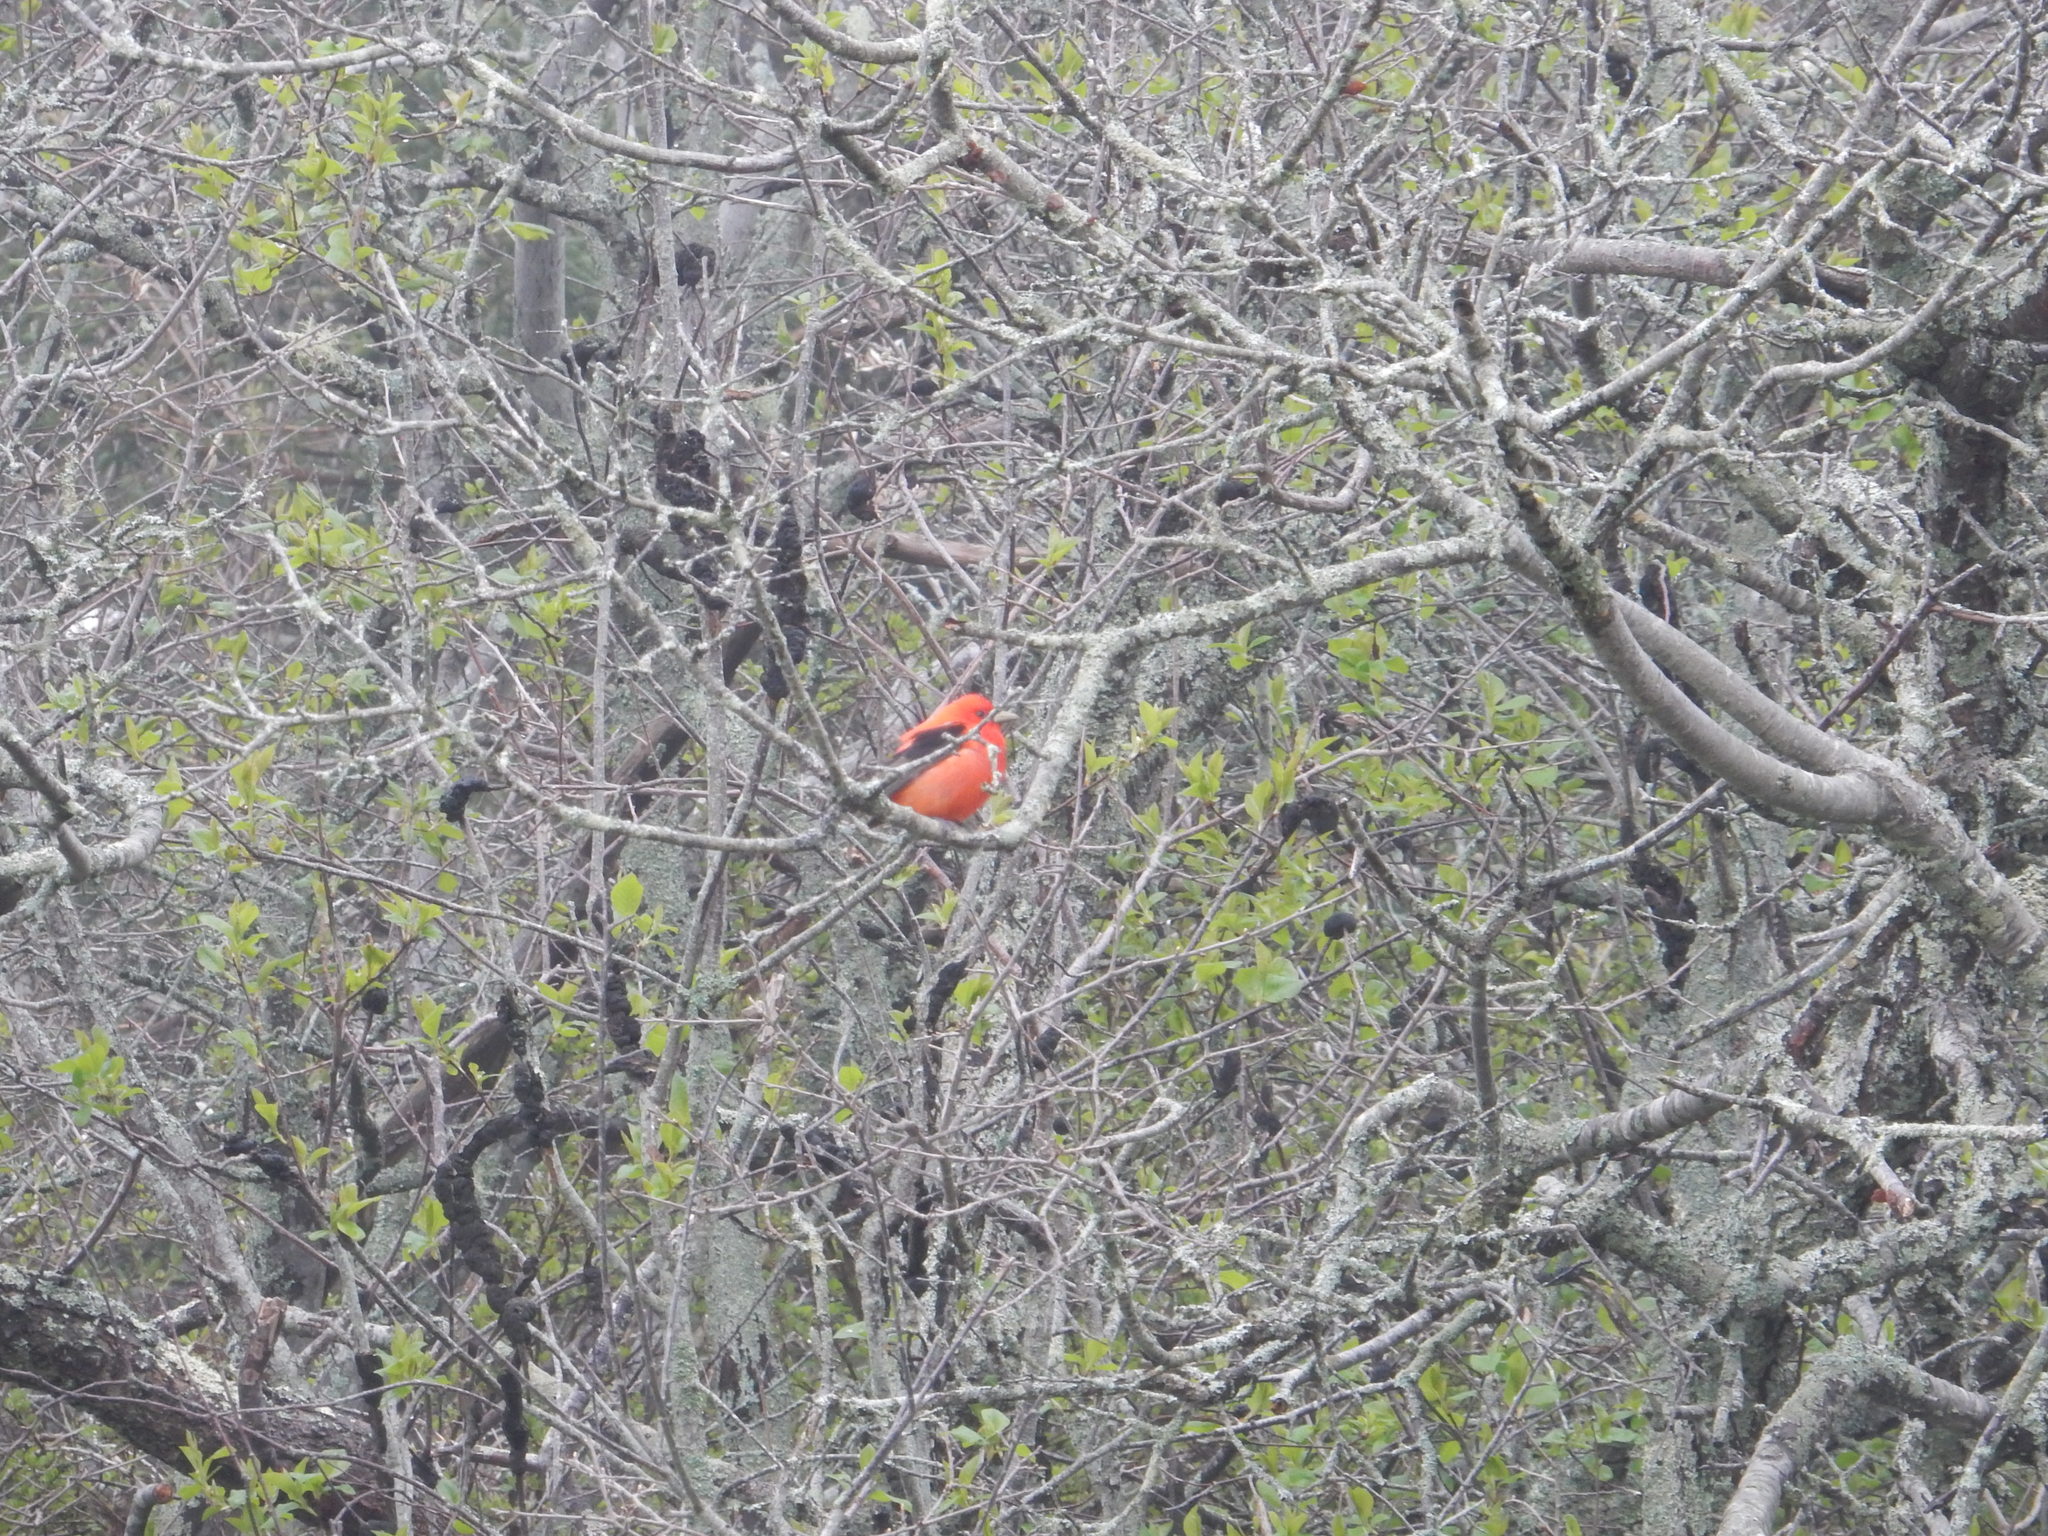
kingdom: Animalia
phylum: Chordata
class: Aves
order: Passeriformes
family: Cardinalidae
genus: Piranga
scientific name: Piranga olivacea
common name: Scarlet tanager
